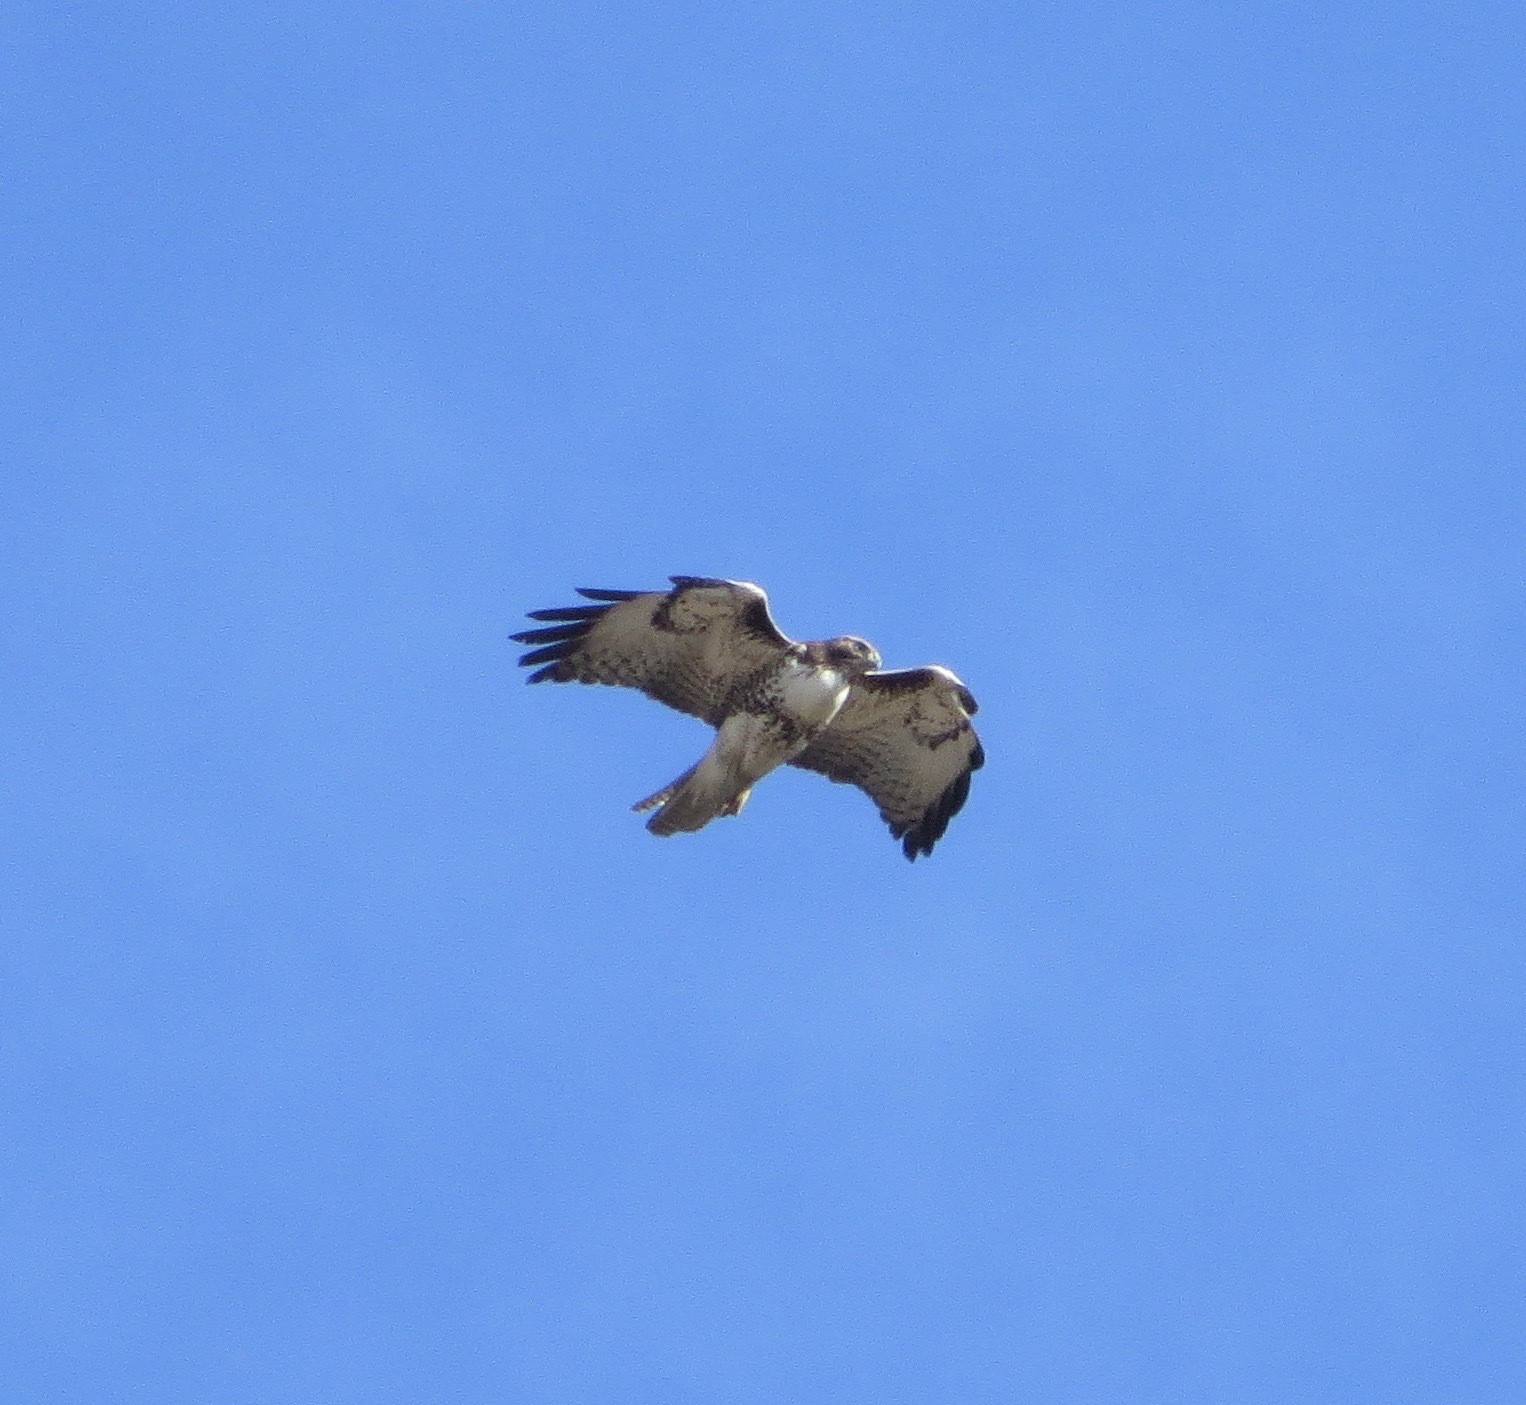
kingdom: Animalia
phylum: Chordata
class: Aves
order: Accipitriformes
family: Accipitridae
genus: Buteo
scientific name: Buteo jamaicensis
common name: Red-tailed hawk
